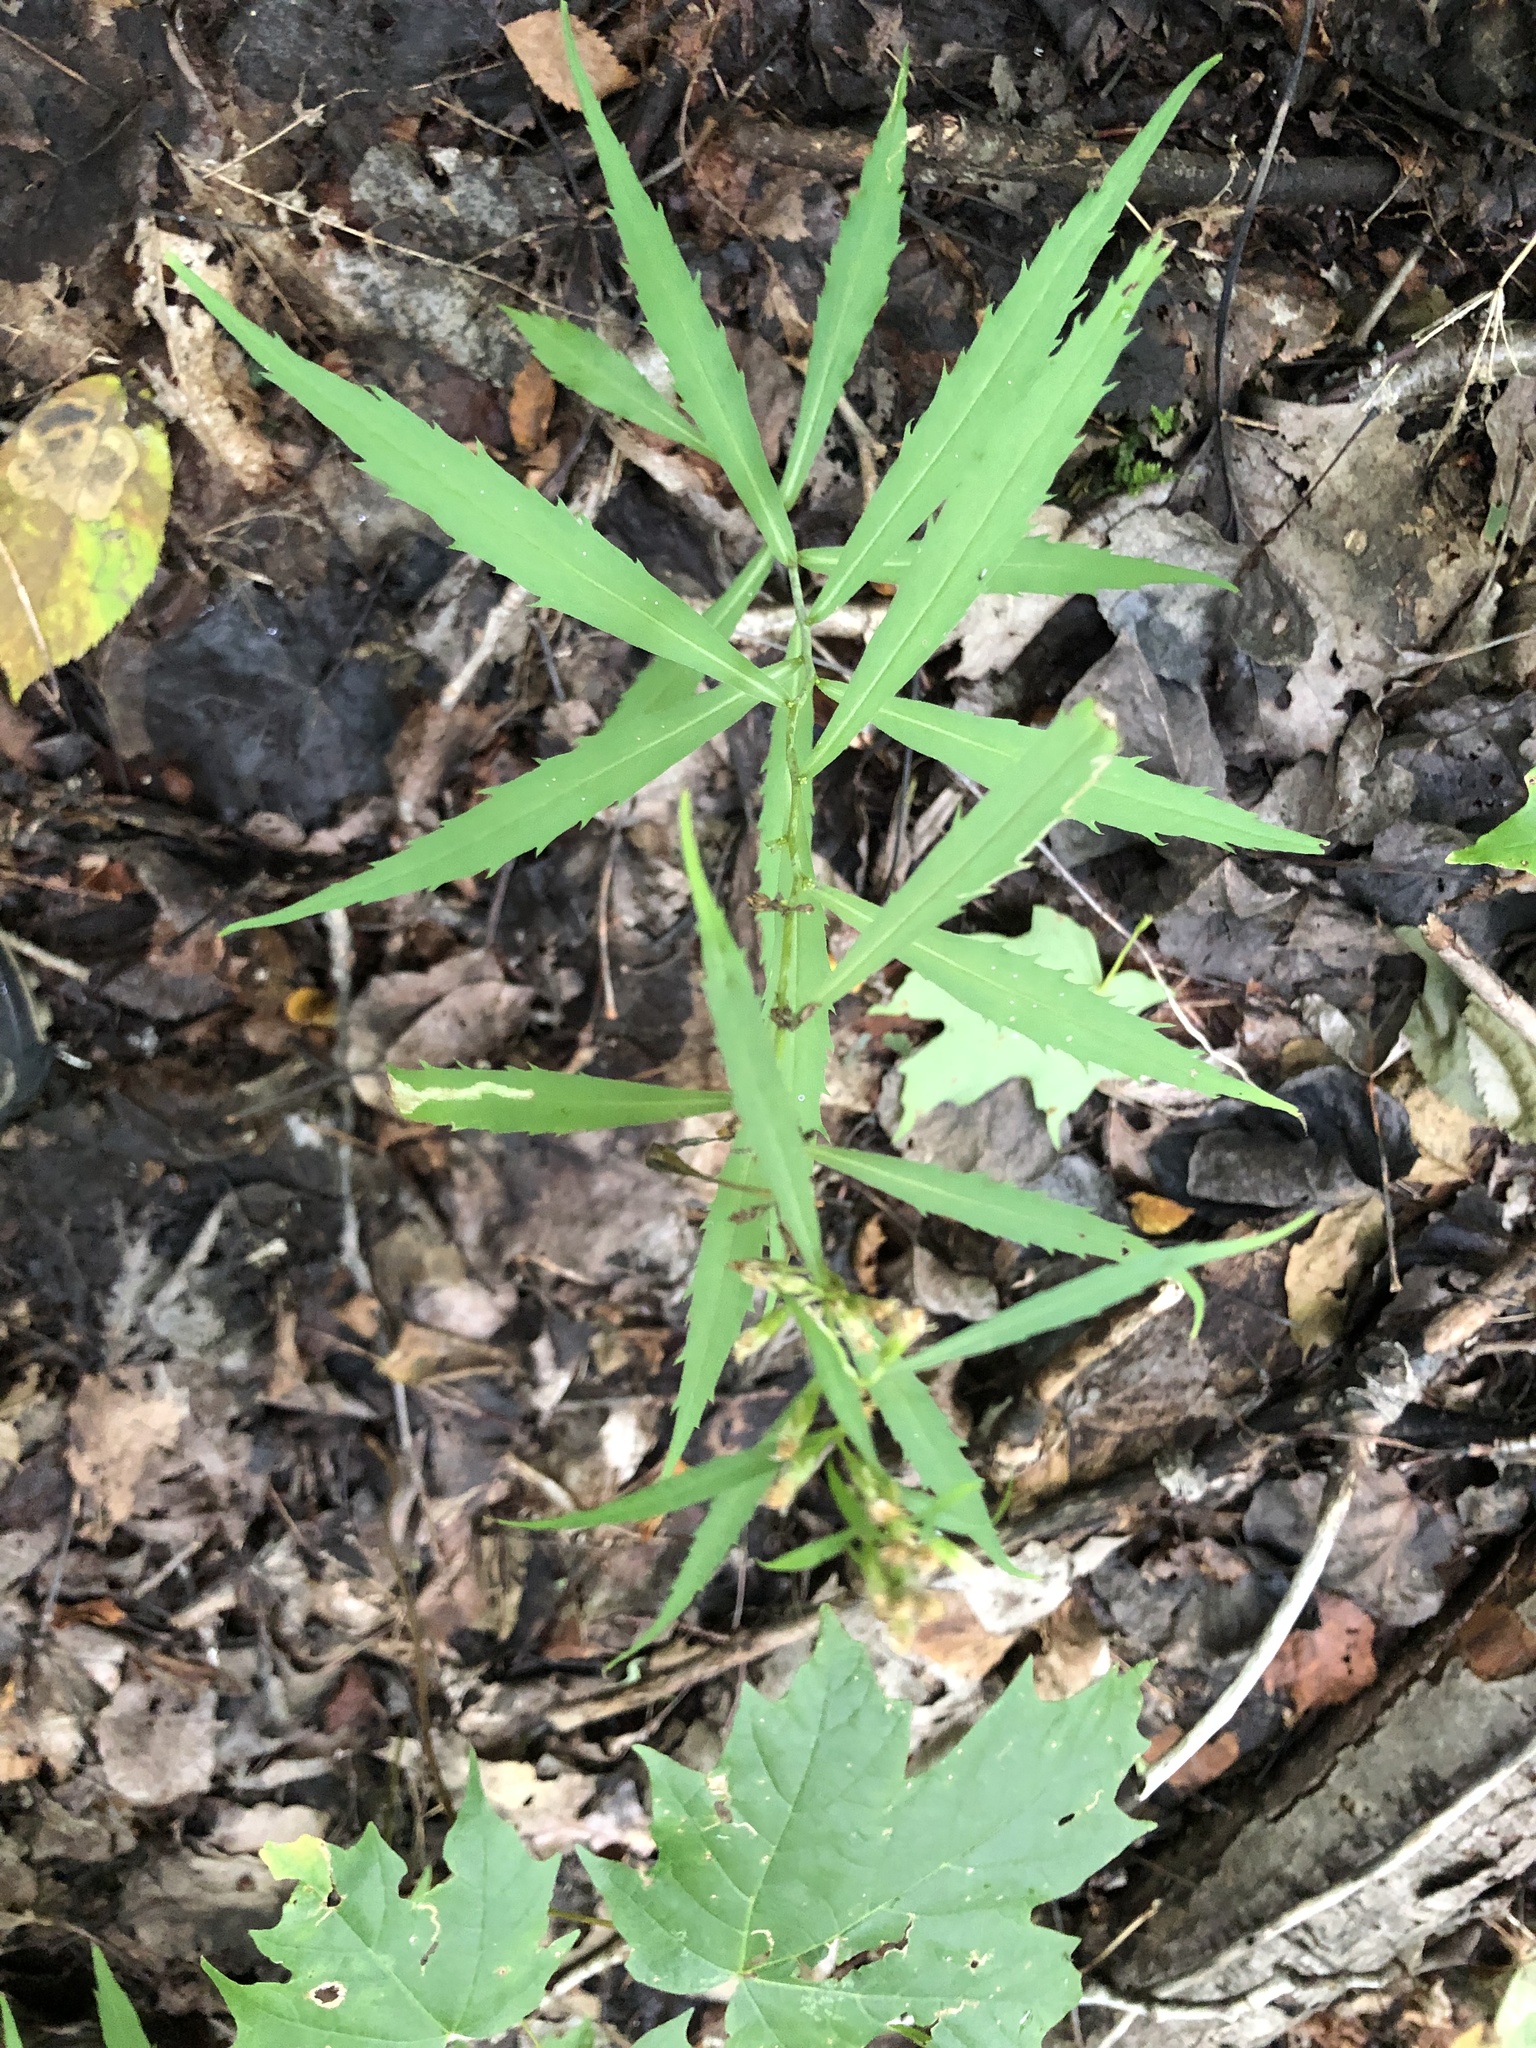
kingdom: Plantae
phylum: Tracheophyta
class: Magnoliopsida
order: Asterales
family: Asteraceae
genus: Solidago
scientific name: Solidago caesia
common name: Woodland goldenrod
